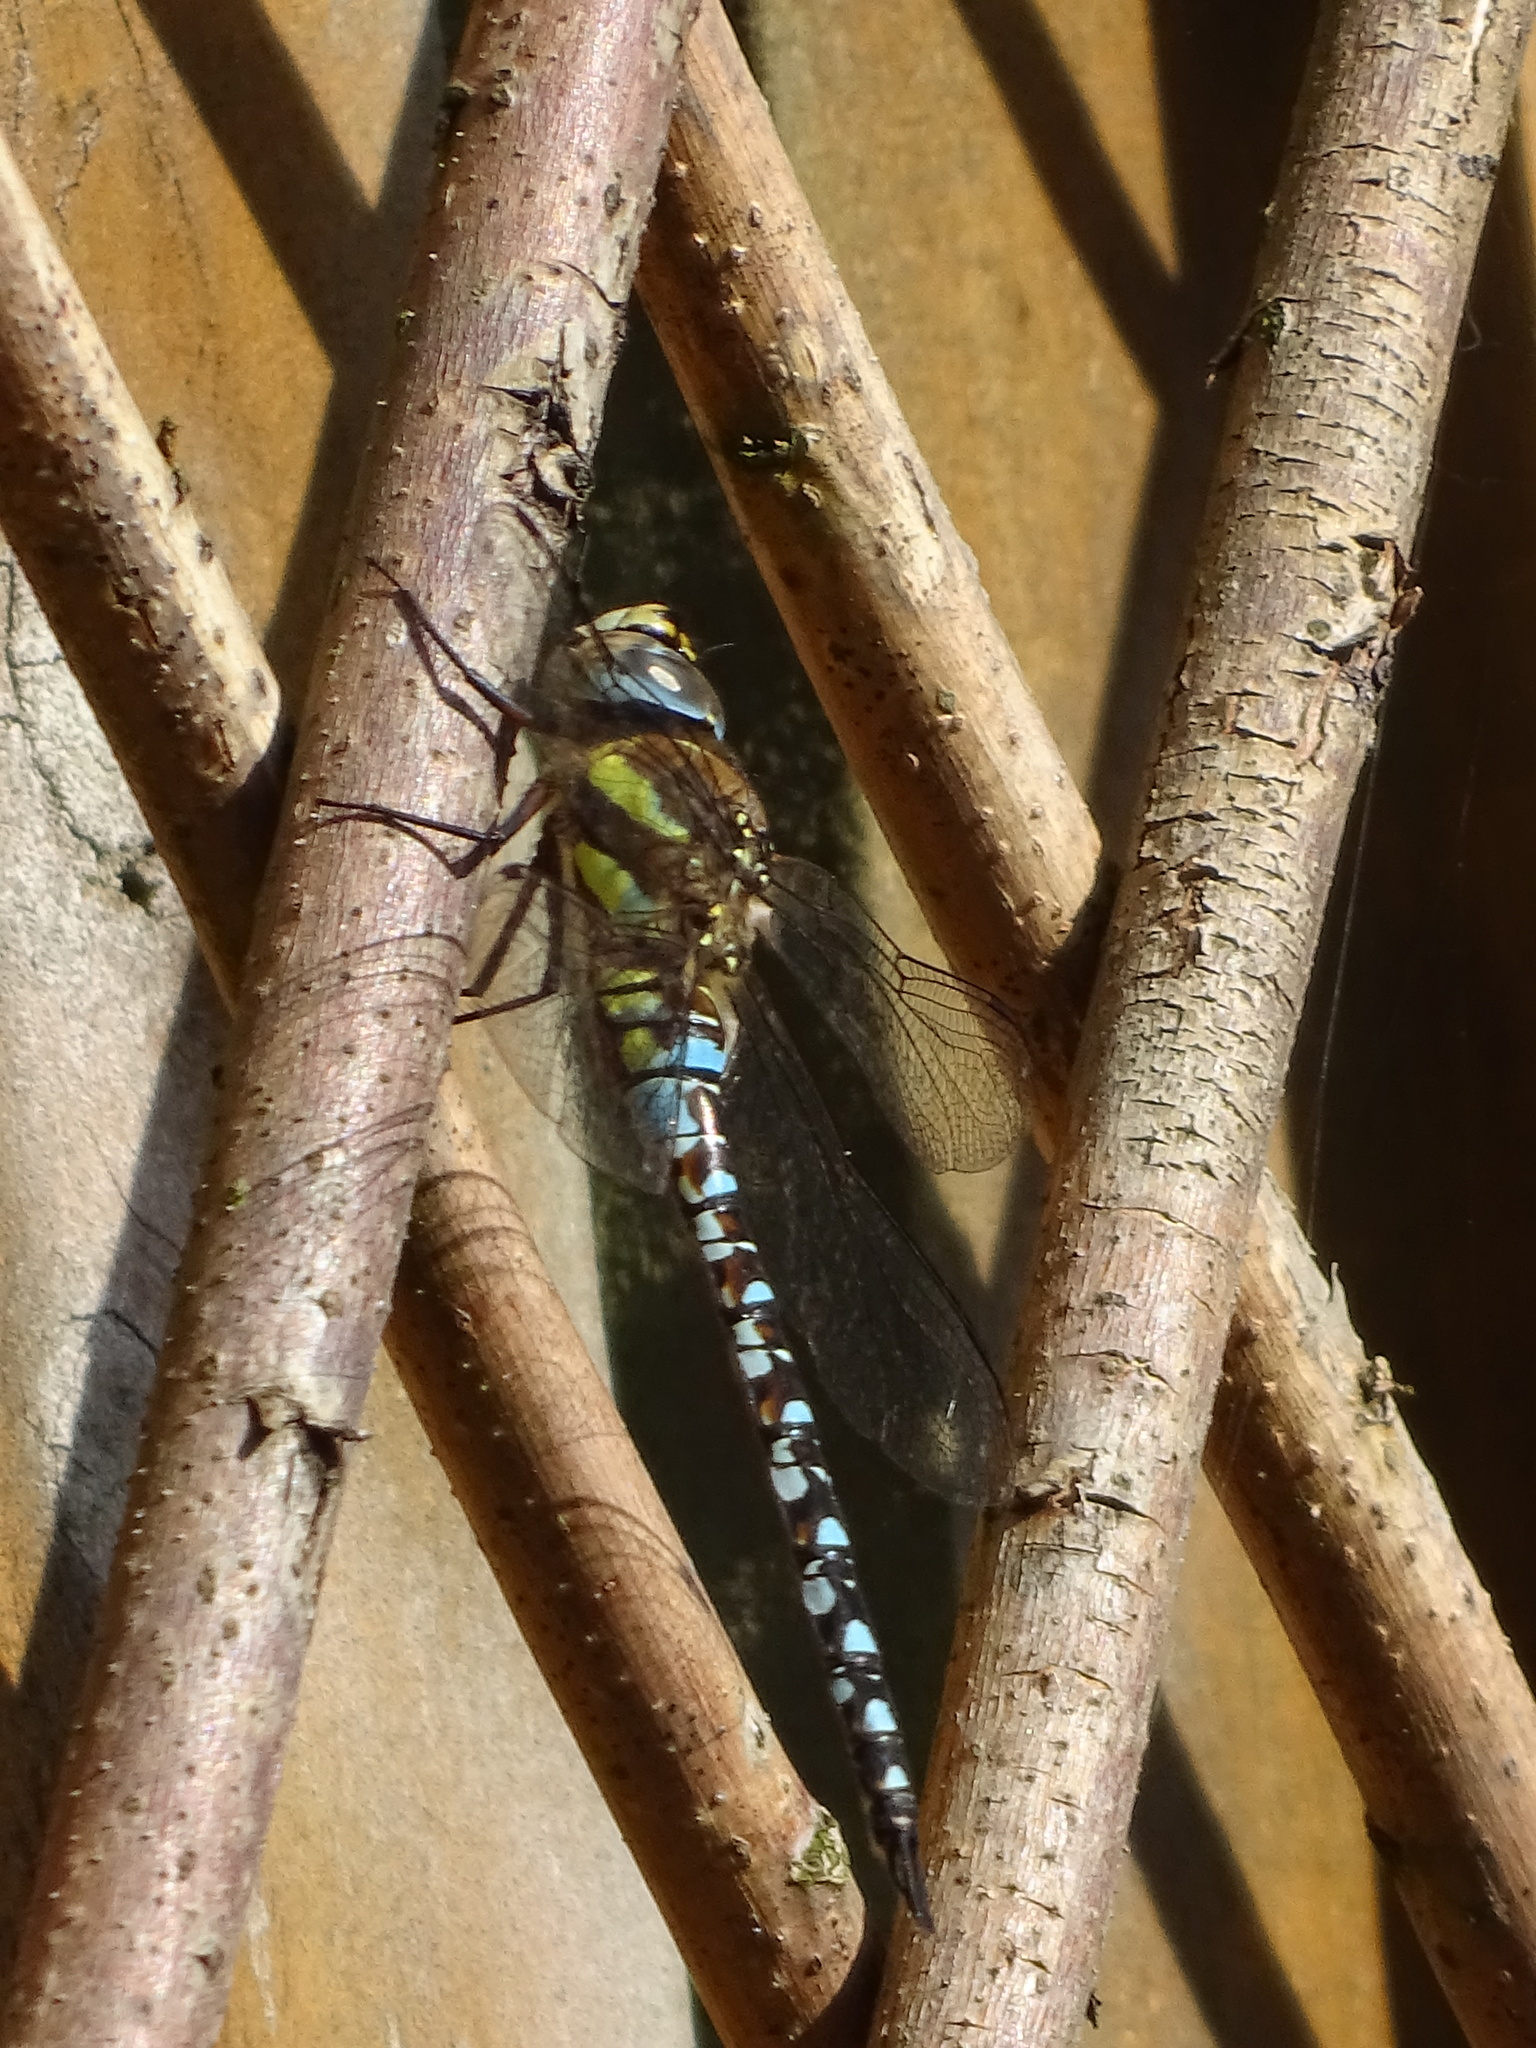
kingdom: Animalia
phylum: Arthropoda
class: Insecta
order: Odonata
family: Aeshnidae
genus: Aeshna
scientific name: Aeshna mixta
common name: Migrant hawker
